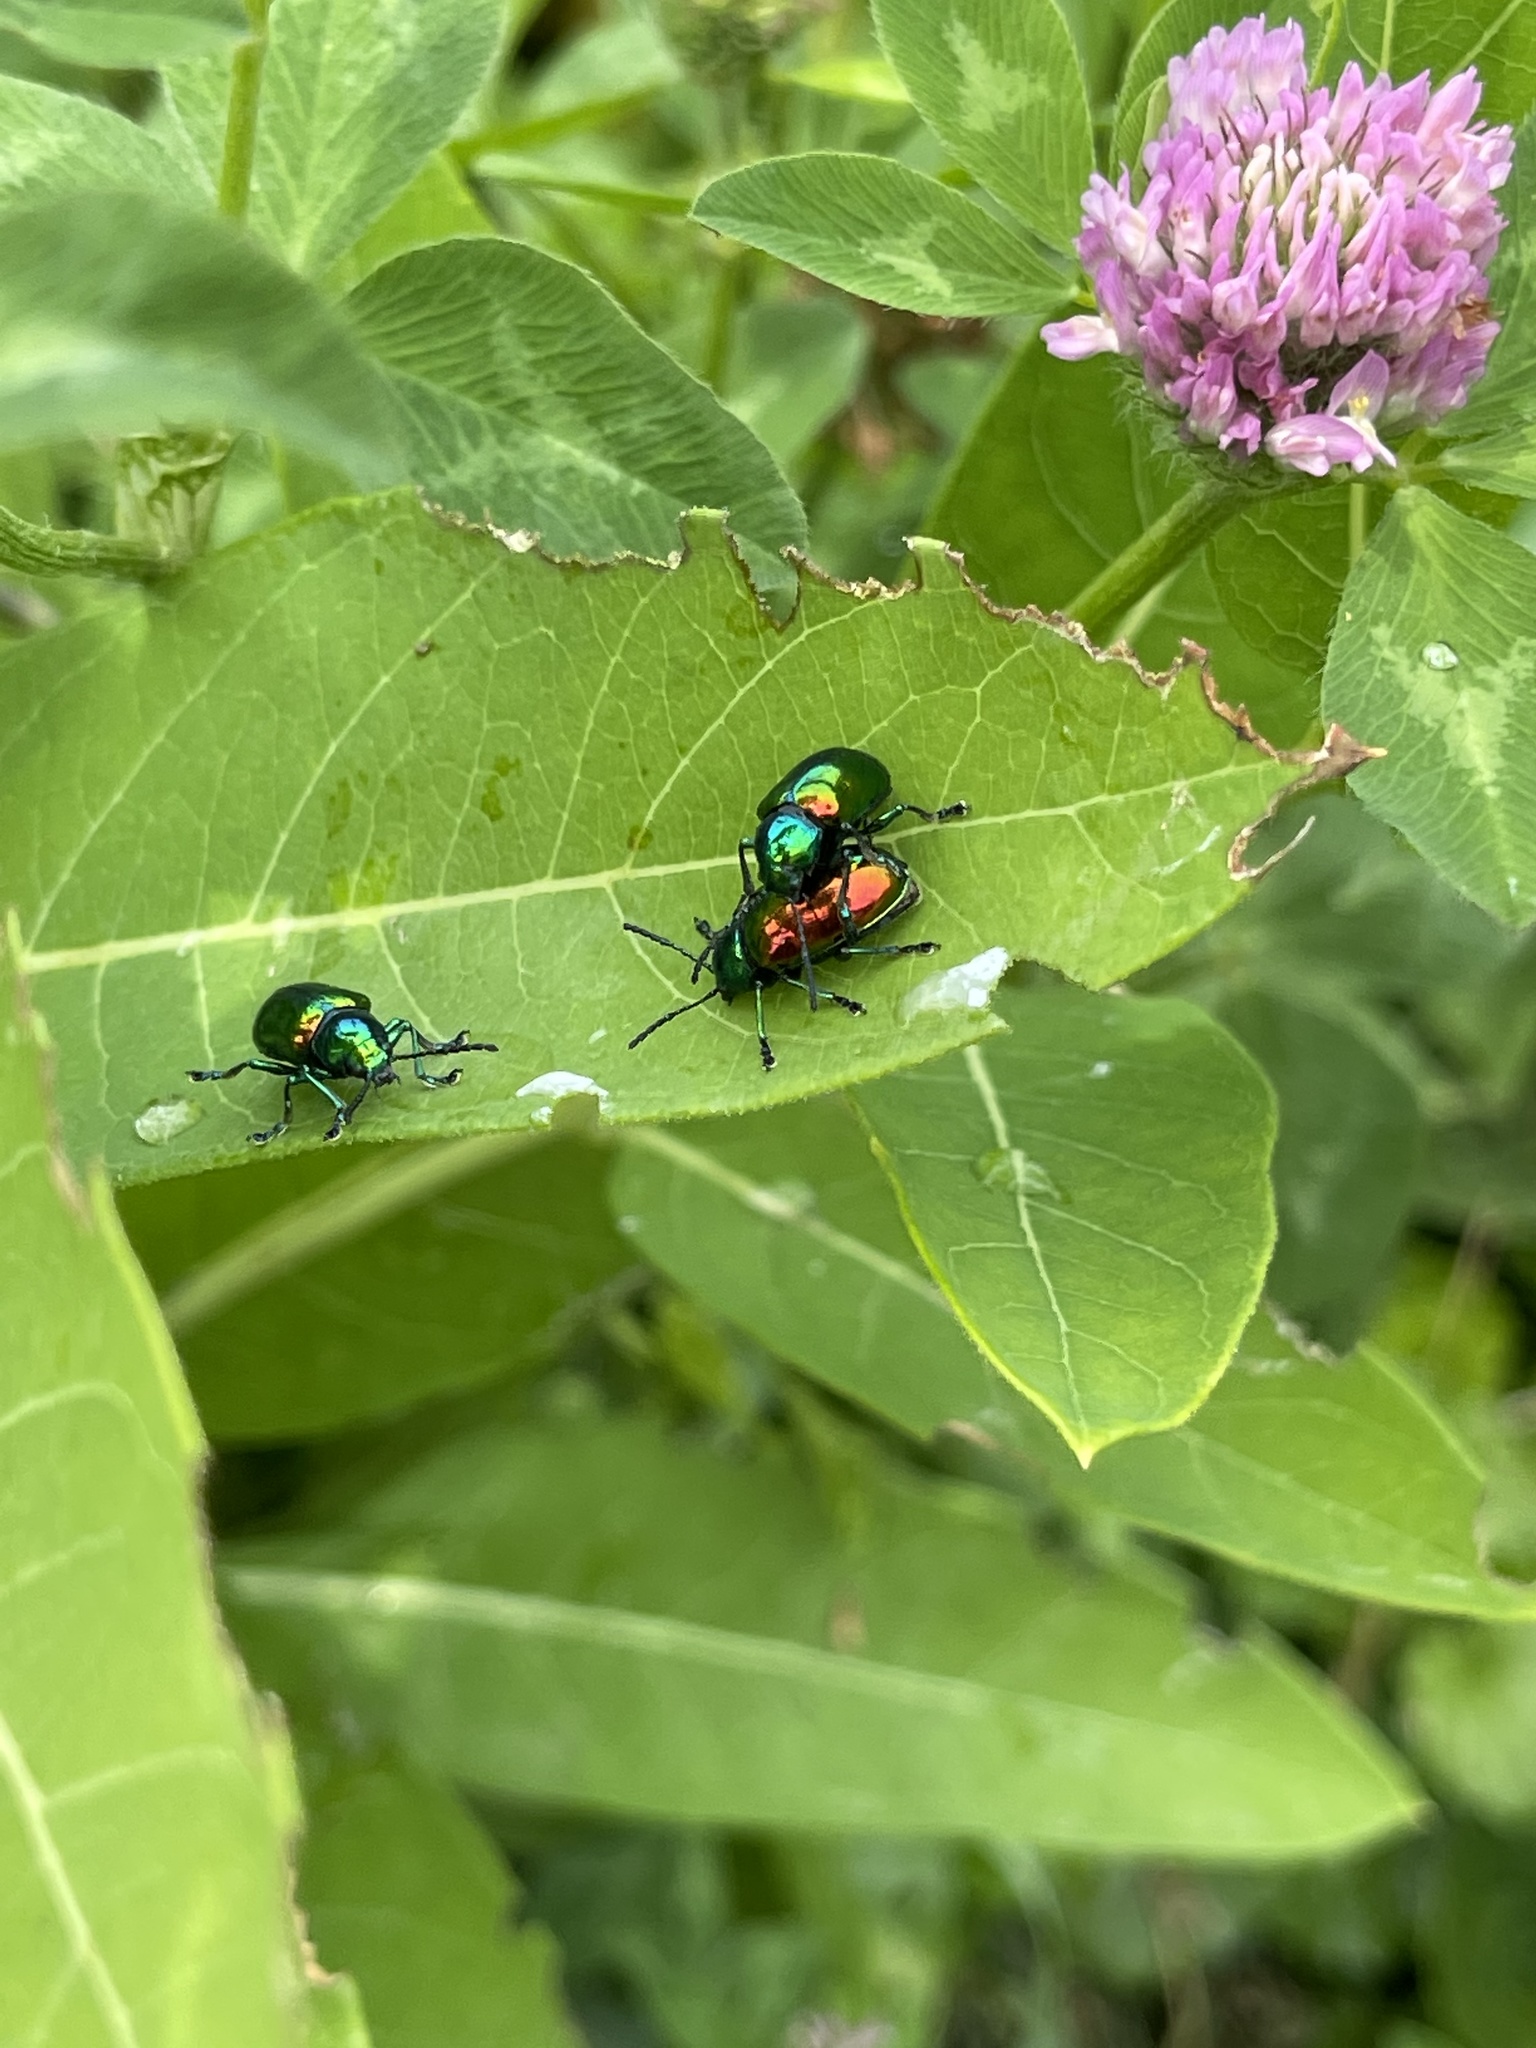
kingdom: Animalia
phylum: Arthropoda
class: Insecta
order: Coleoptera
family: Chrysomelidae
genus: Chrysochus
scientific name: Chrysochus auratus
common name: Dogbane leaf beetle
